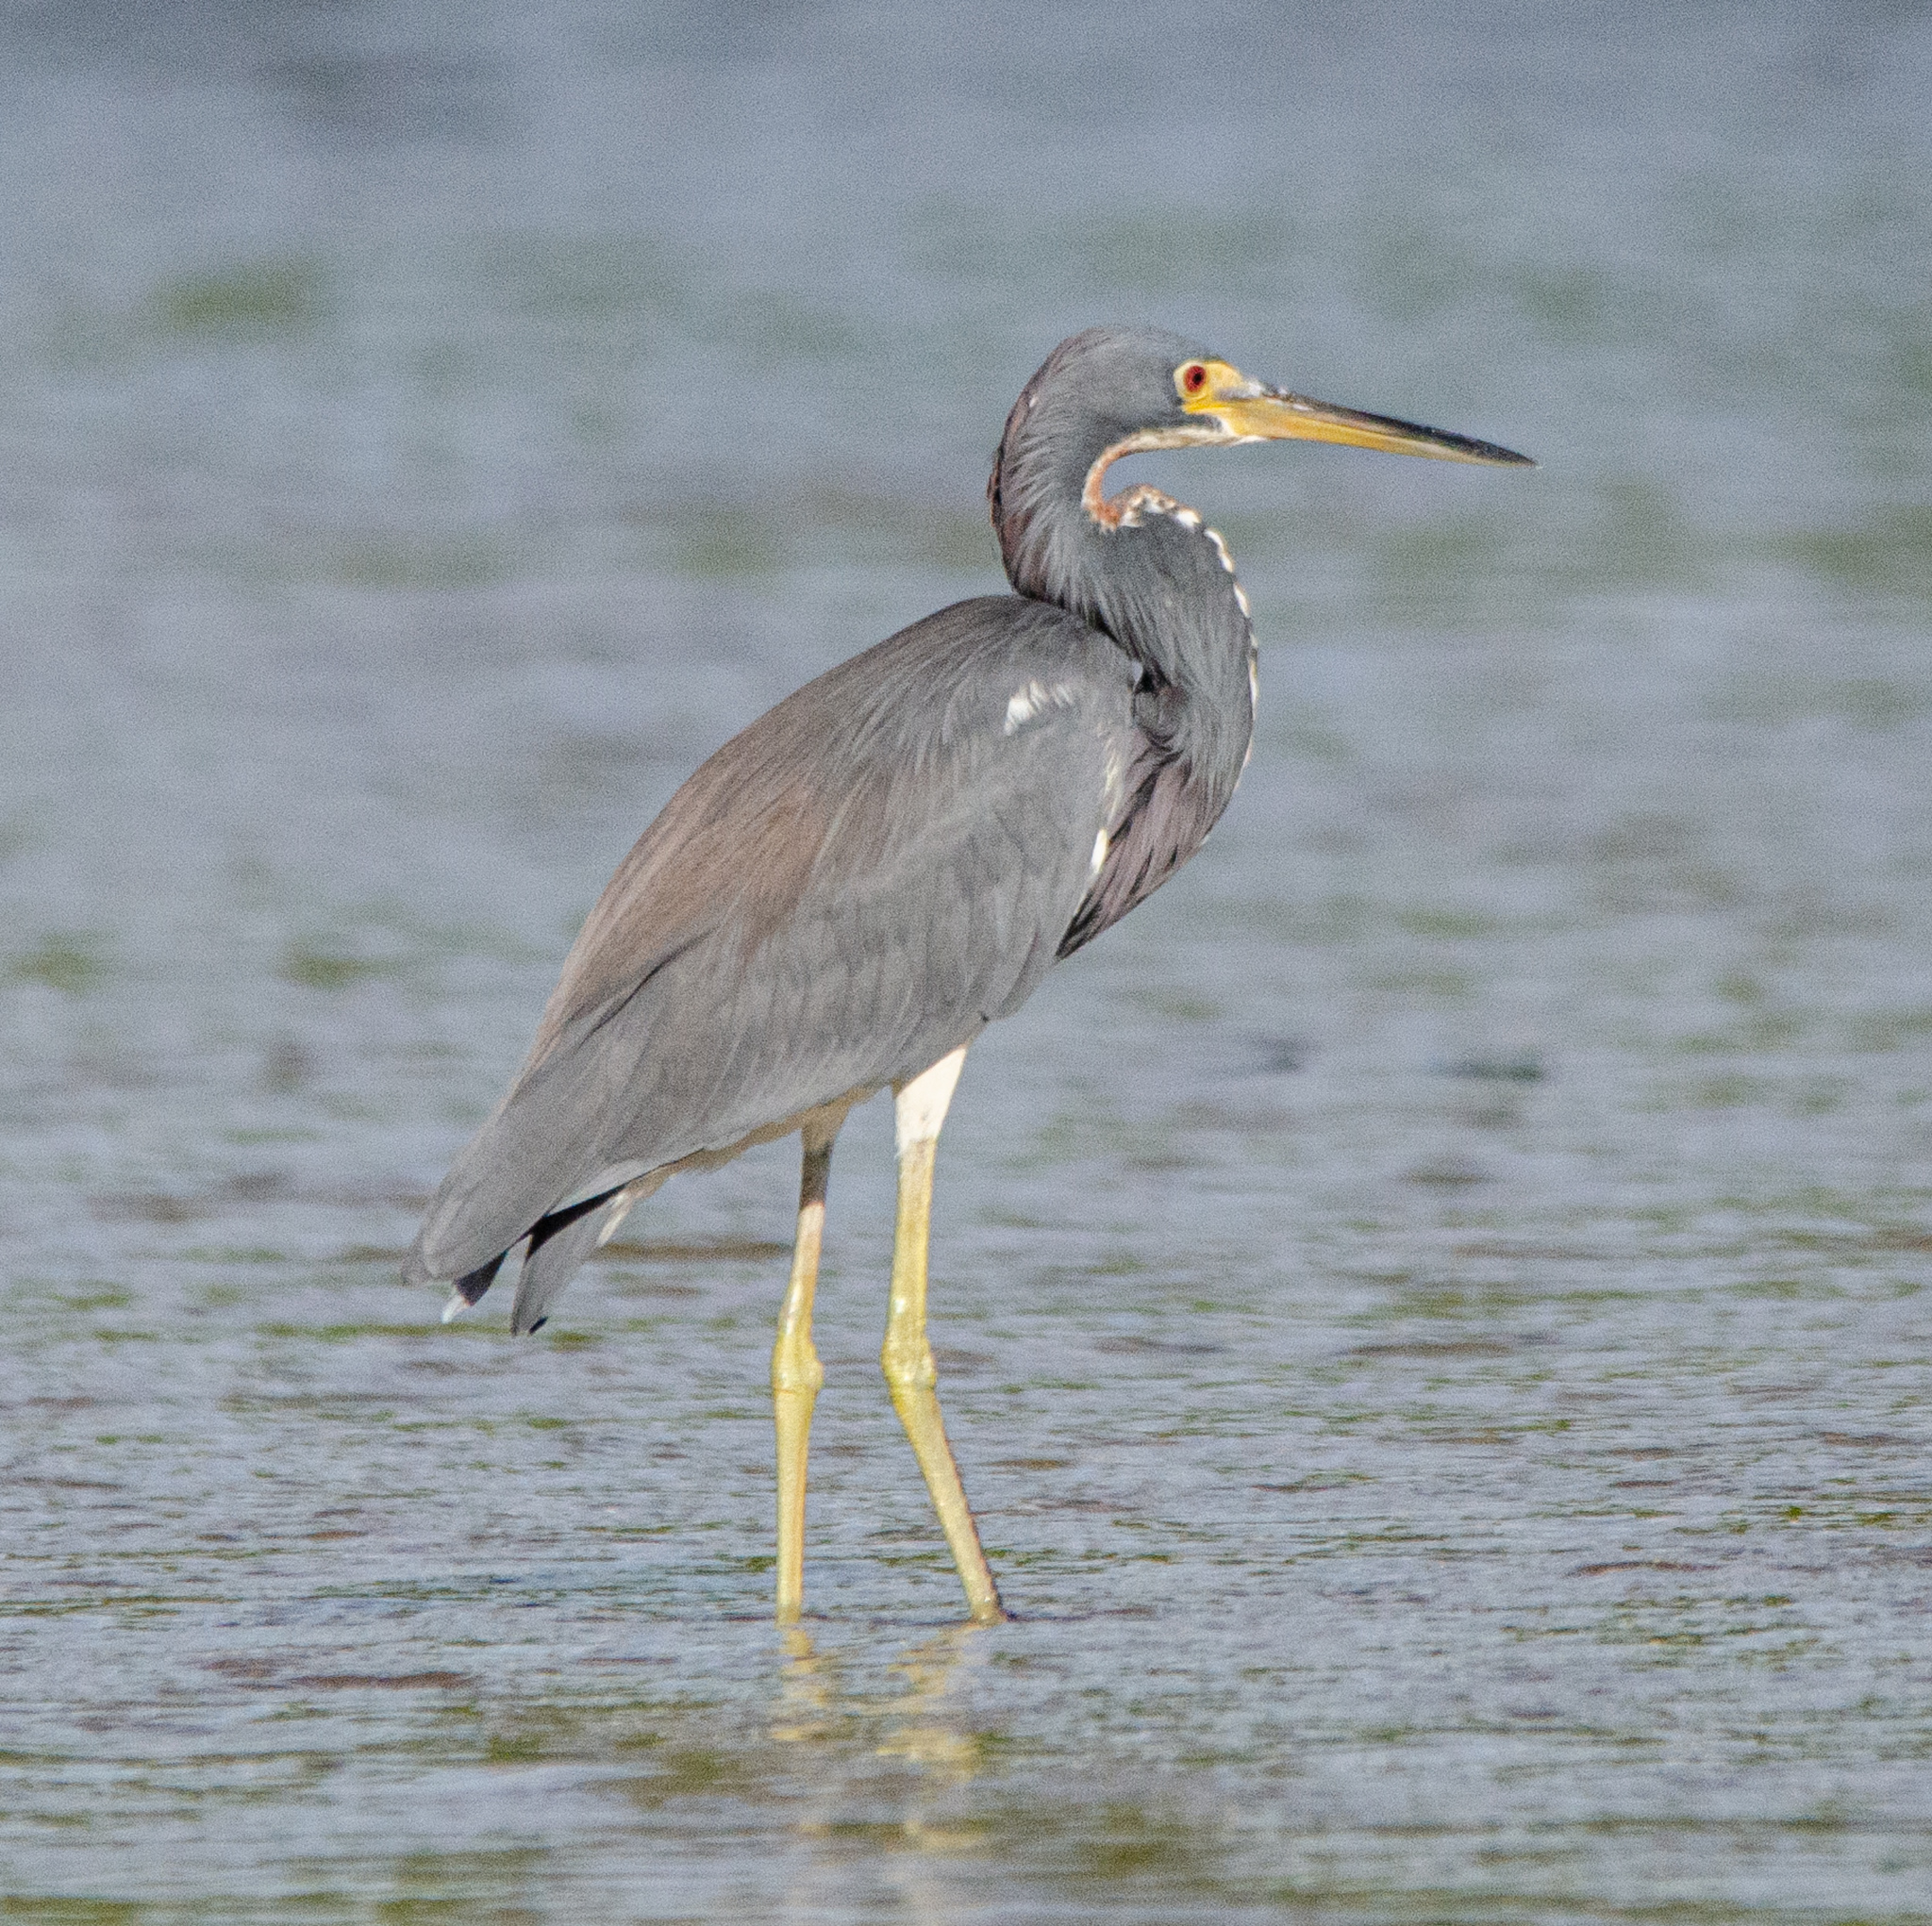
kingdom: Animalia
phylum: Chordata
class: Aves
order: Pelecaniformes
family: Ardeidae
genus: Egretta
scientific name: Egretta tricolor
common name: Tricolored heron
